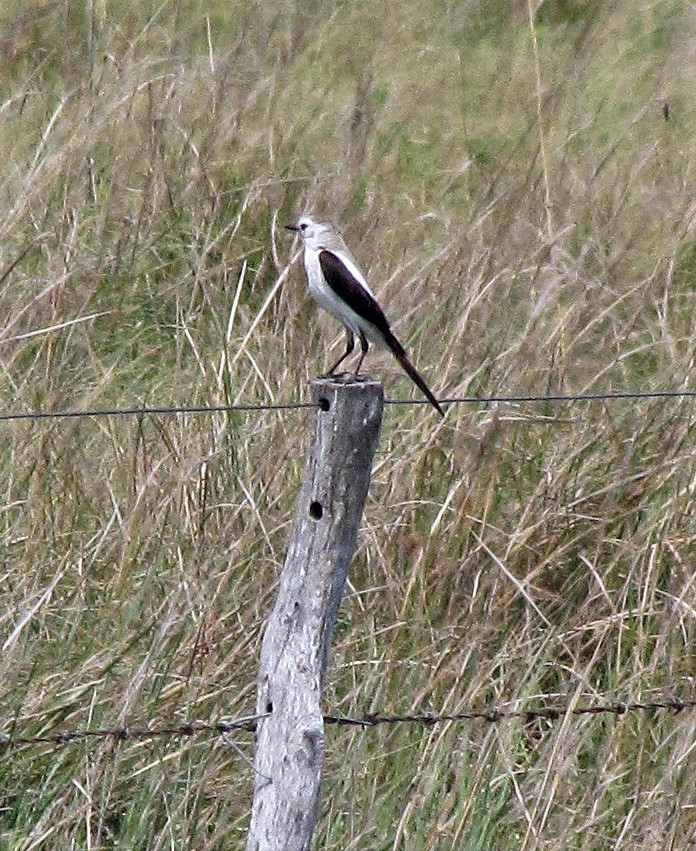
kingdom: Animalia
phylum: Chordata
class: Aves
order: Passeriformes
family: Tyrannidae
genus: Heteroxolmis
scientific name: Heteroxolmis dominicana
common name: Black-and-white monjita
